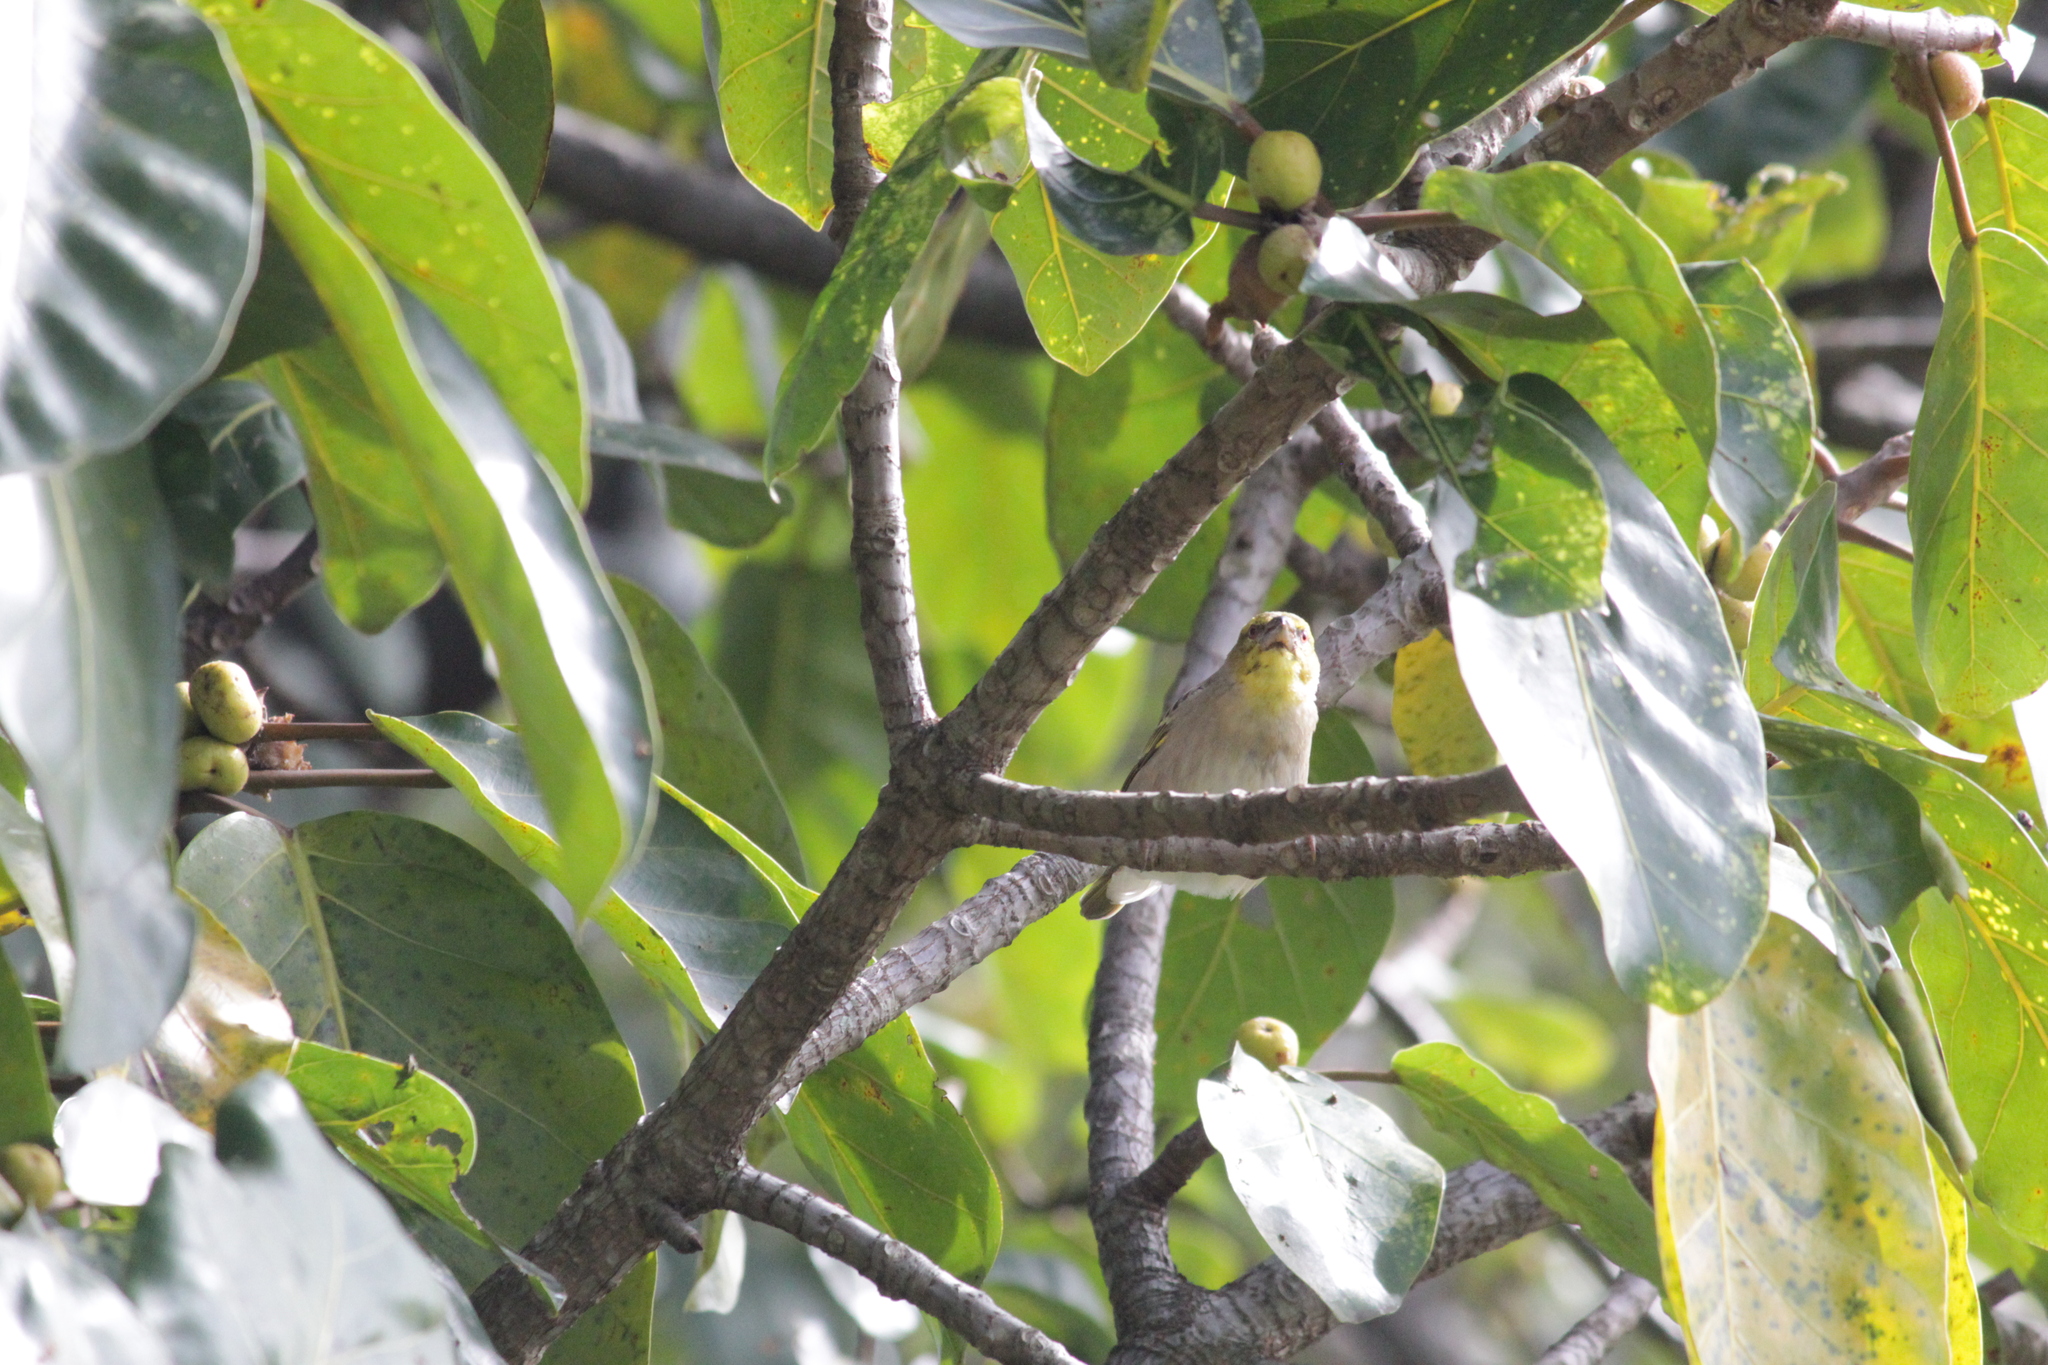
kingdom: Animalia
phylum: Chordata
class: Aves
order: Passeriformes
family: Ploceidae
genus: Ploceus
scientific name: Ploceus cucullatus
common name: Village weaver
